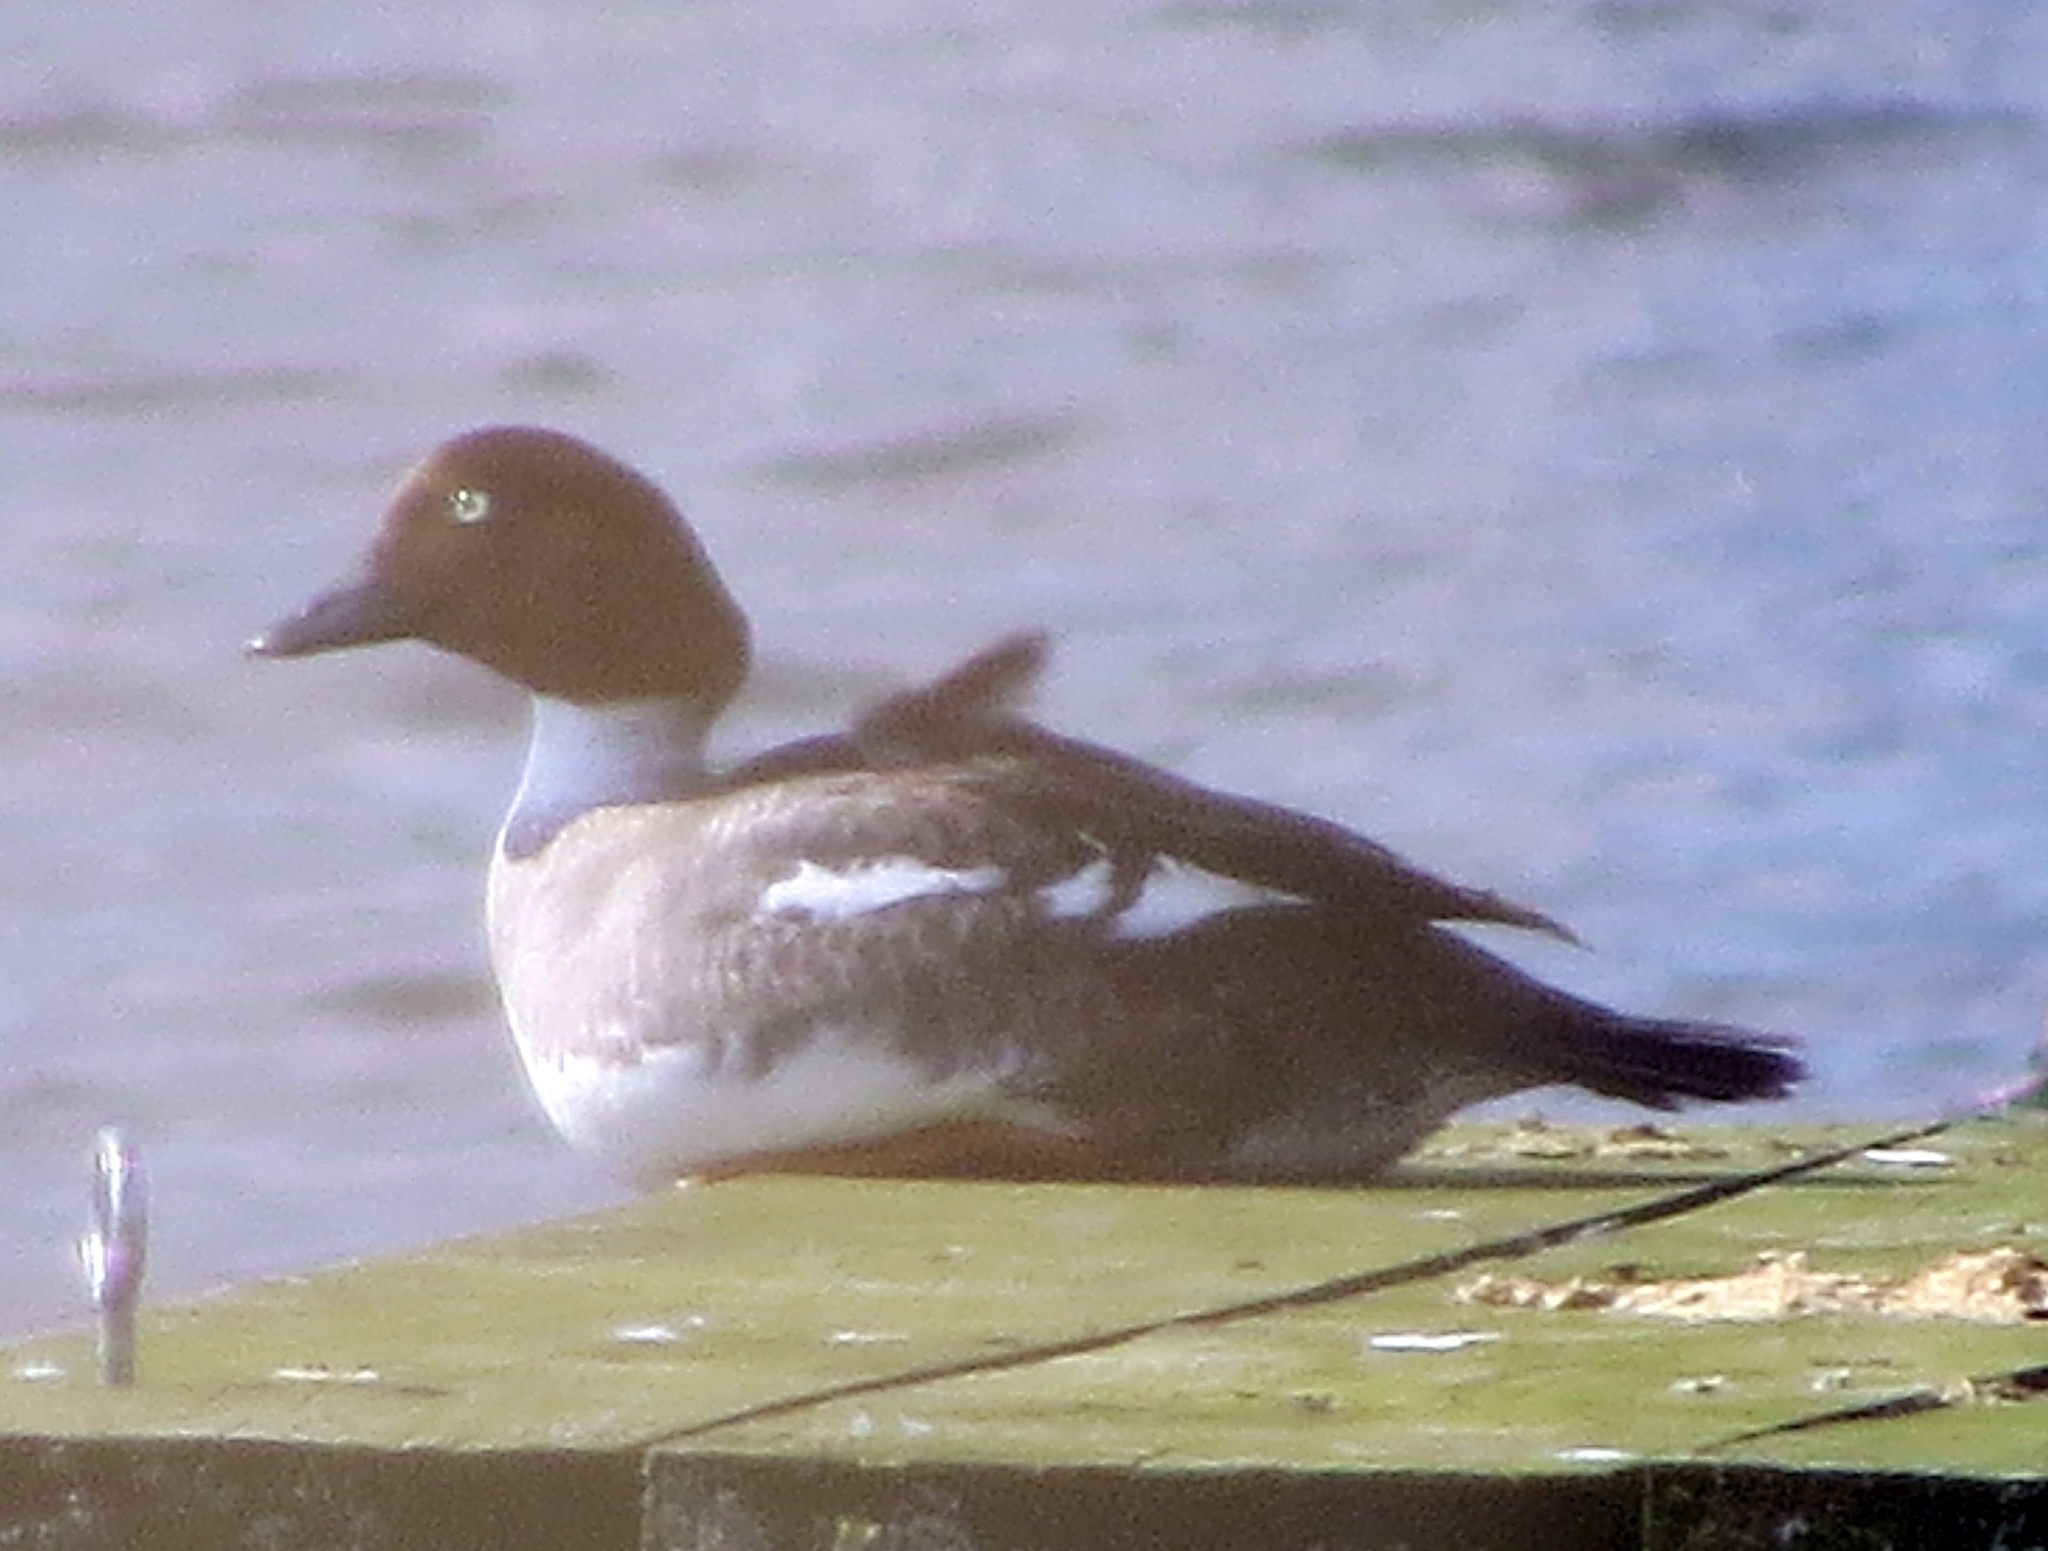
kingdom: Animalia
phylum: Chordata
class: Aves
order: Anseriformes
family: Anatidae
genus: Bucephala
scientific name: Bucephala clangula
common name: Common goldeneye
